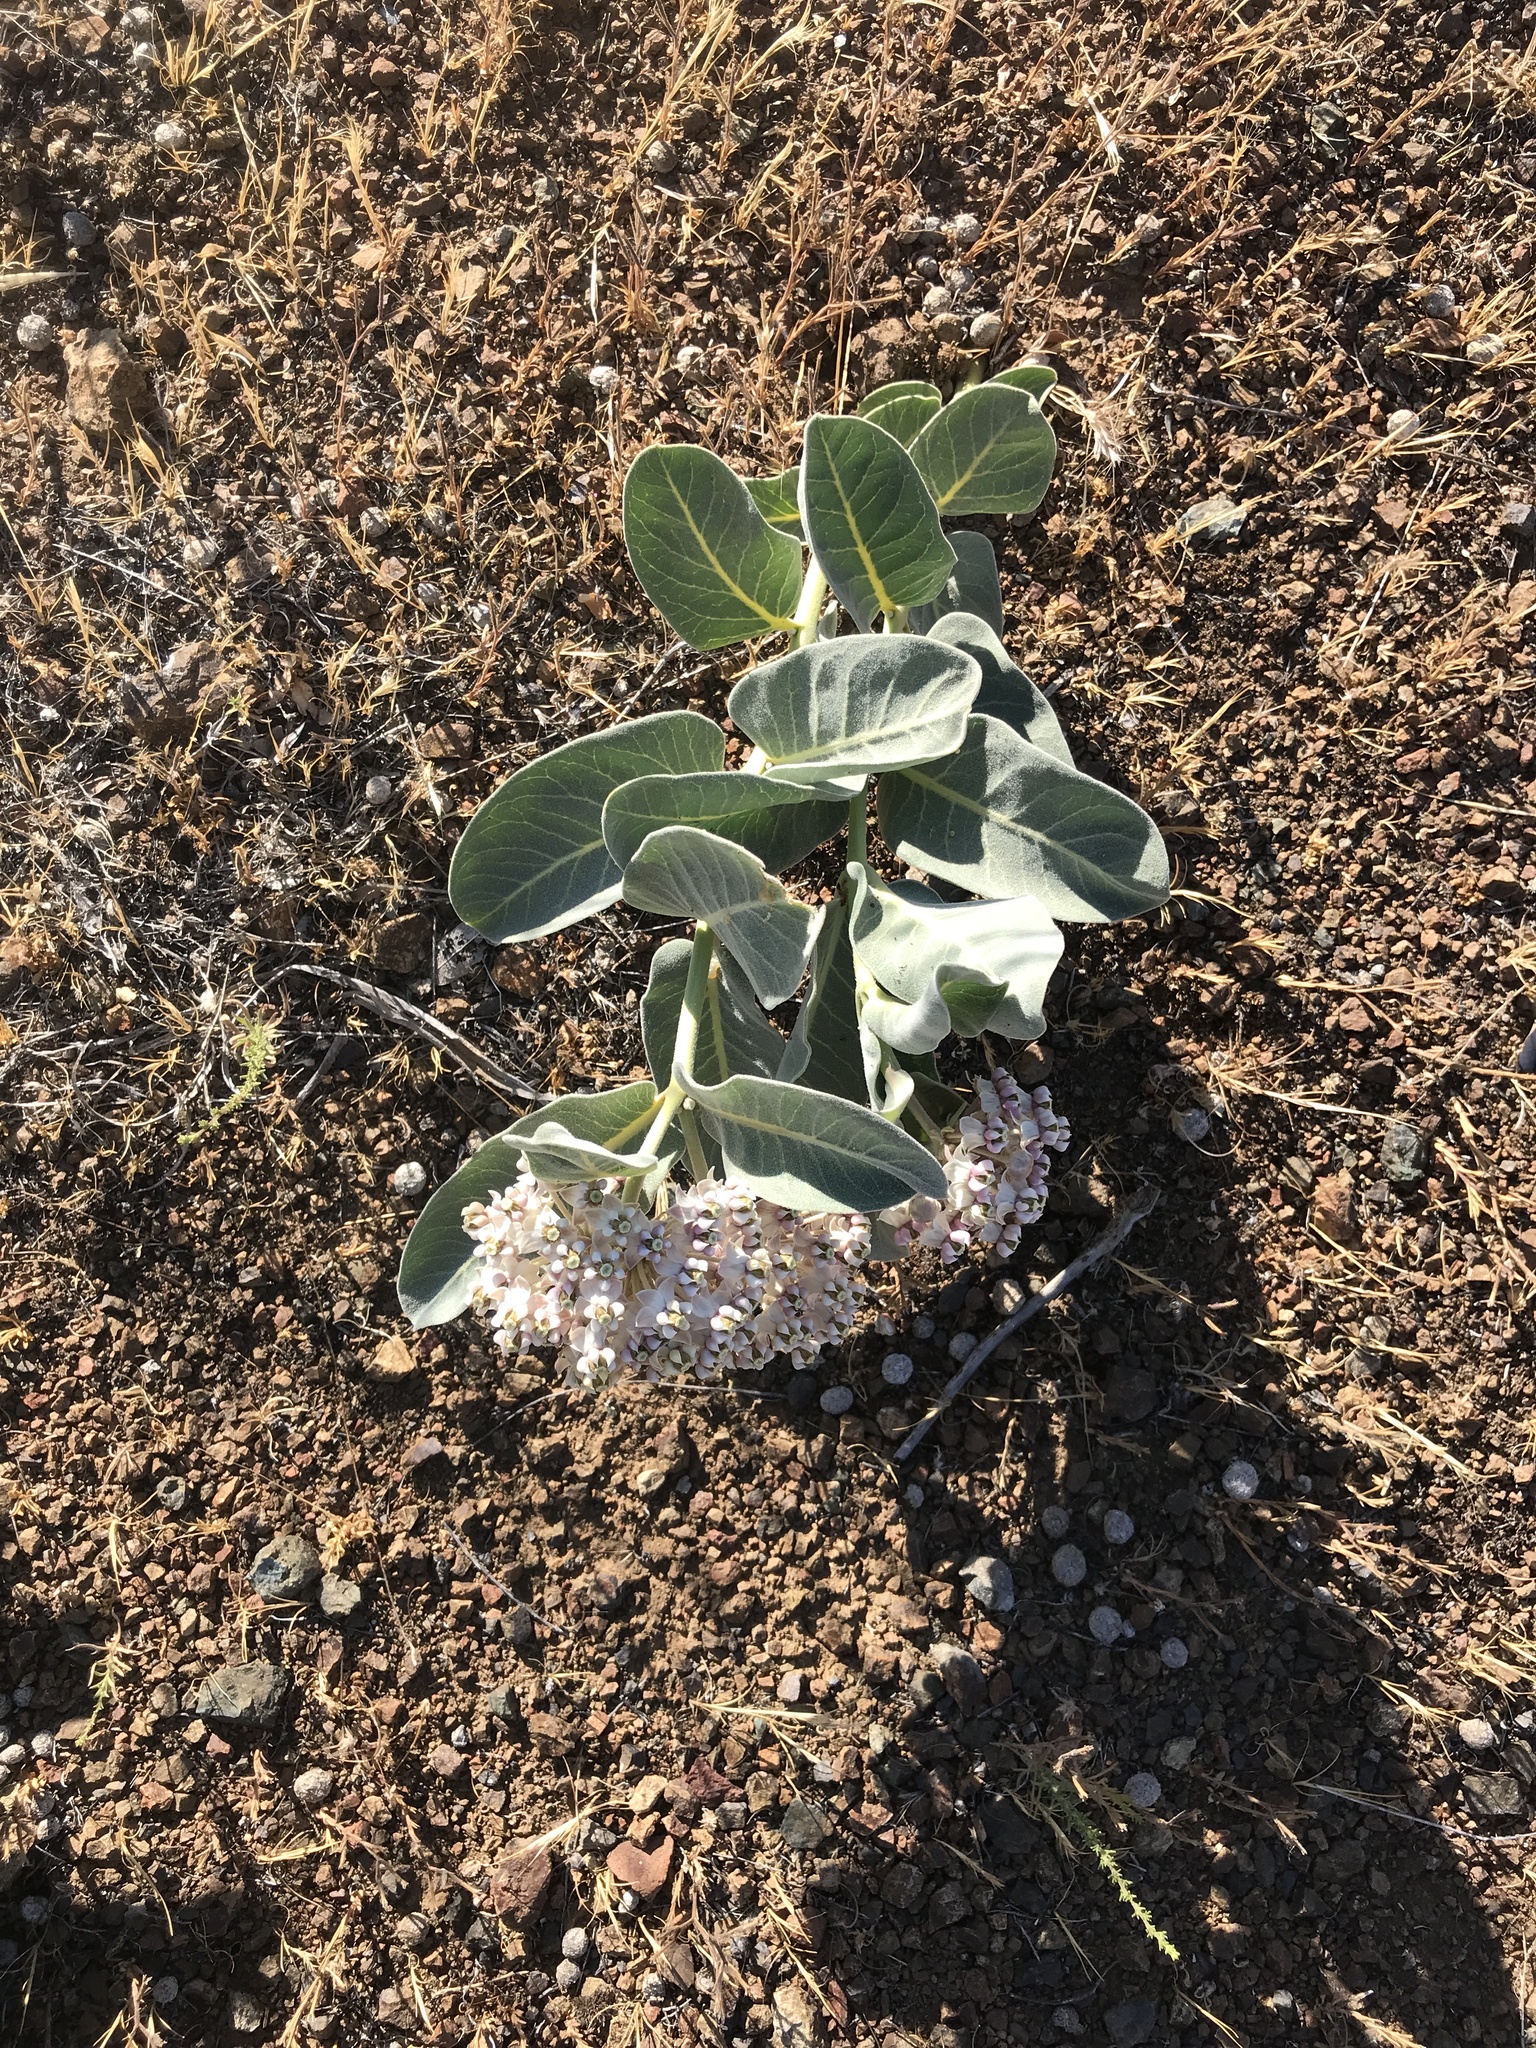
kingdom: Plantae
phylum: Tracheophyta
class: Magnoliopsida
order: Gentianales
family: Apocynaceae
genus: Asclepias
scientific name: Asclepias eriocarpa
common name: Indian milkweed
